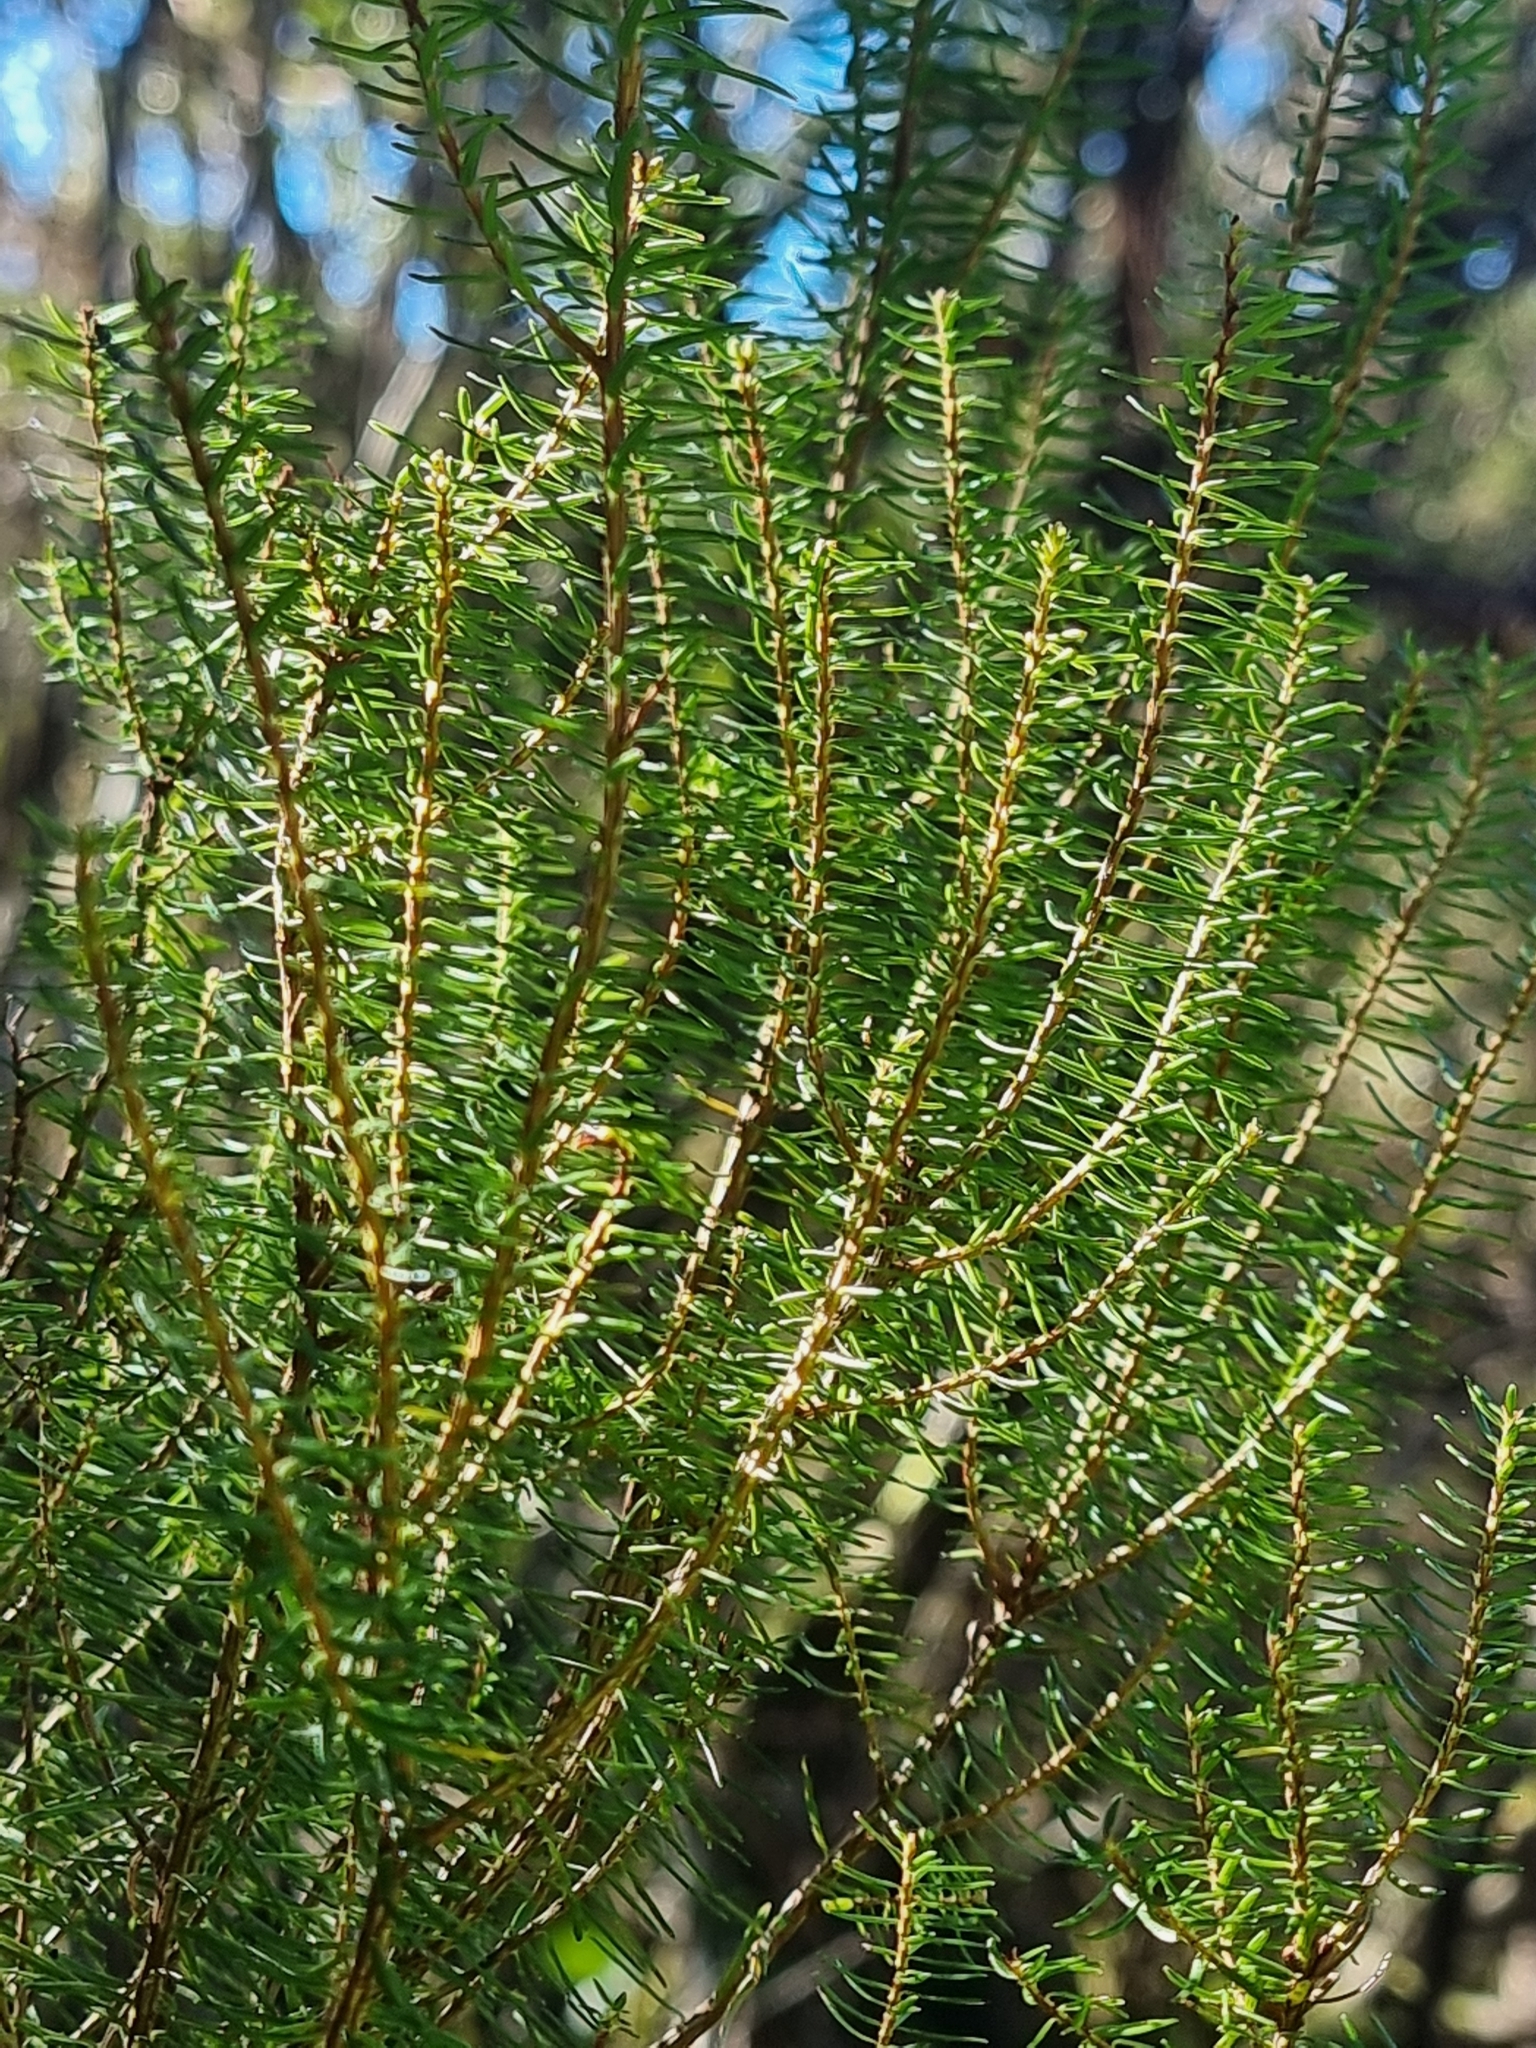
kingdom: Plantae
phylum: Tracheophyta
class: Magnoliopsida
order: Ericales
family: Ericaceae
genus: Erica
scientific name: Erica platycodon
